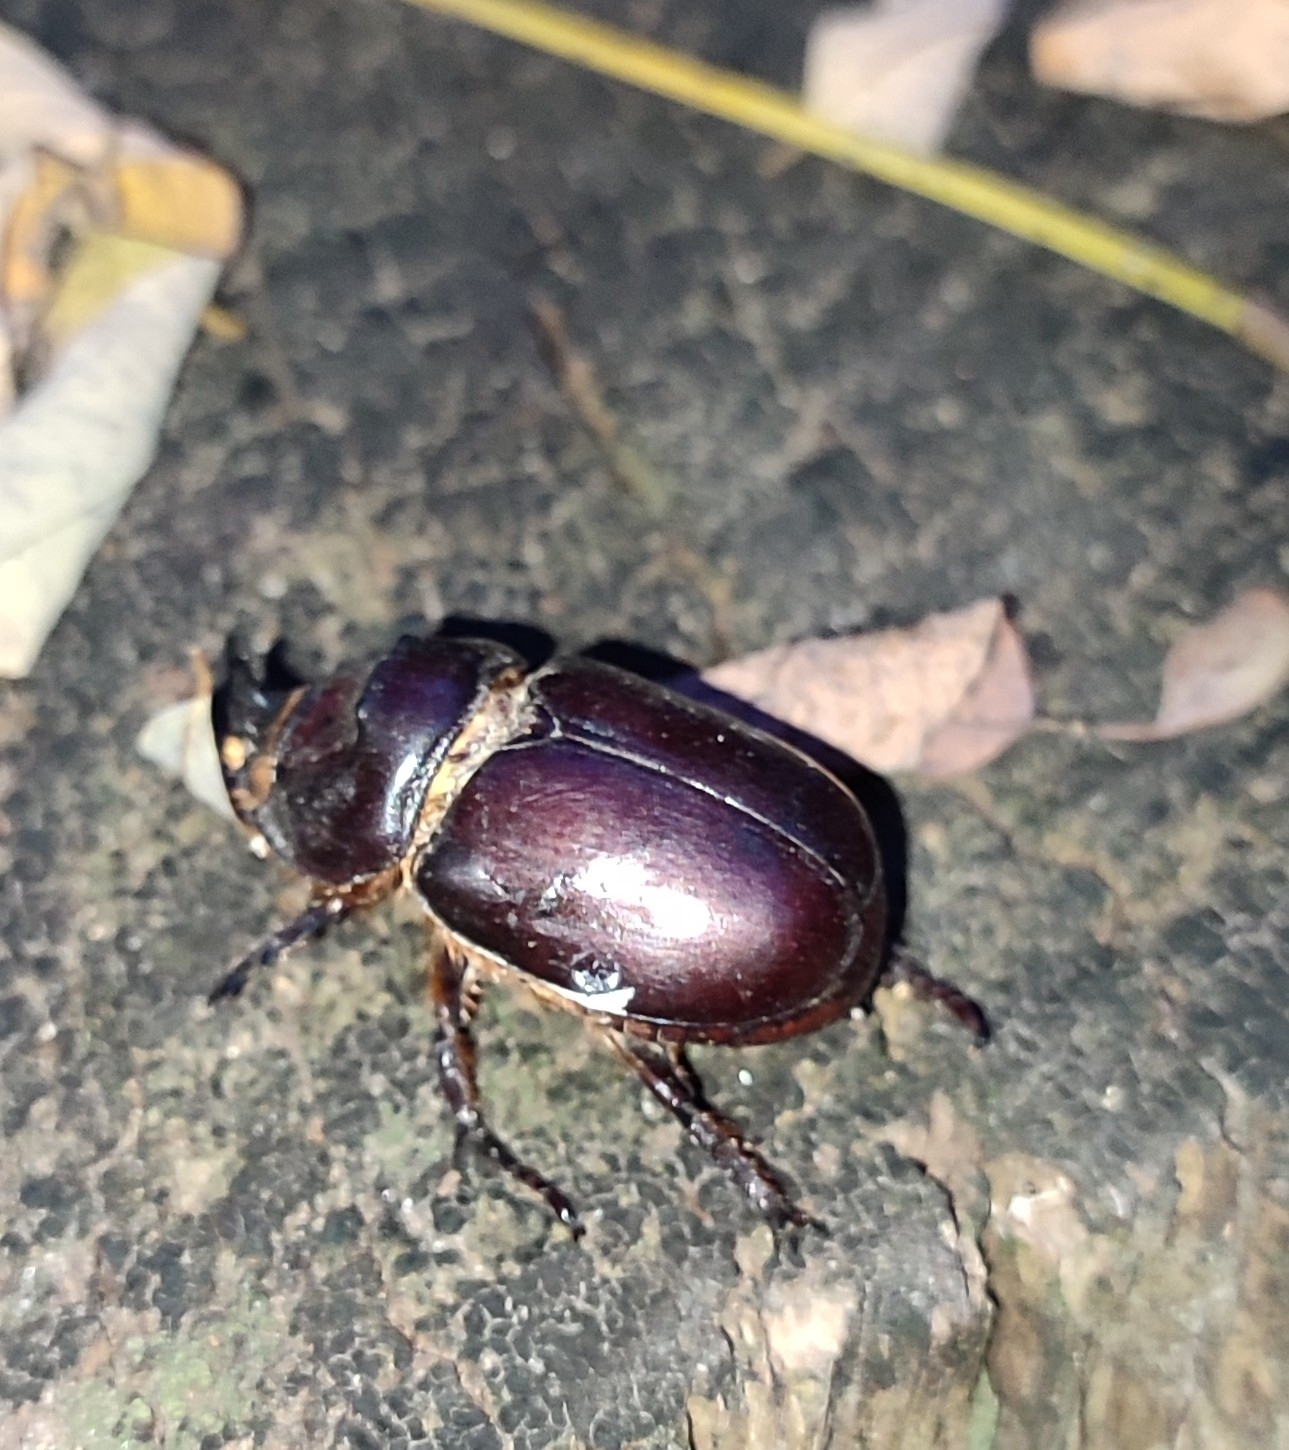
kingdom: Animalia
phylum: Arthropoda
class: Insecta
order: Coleoptera
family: Scarabaeidae
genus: Oryctes
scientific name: Oryctes nasicornis
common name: European rhinoceros beetle
